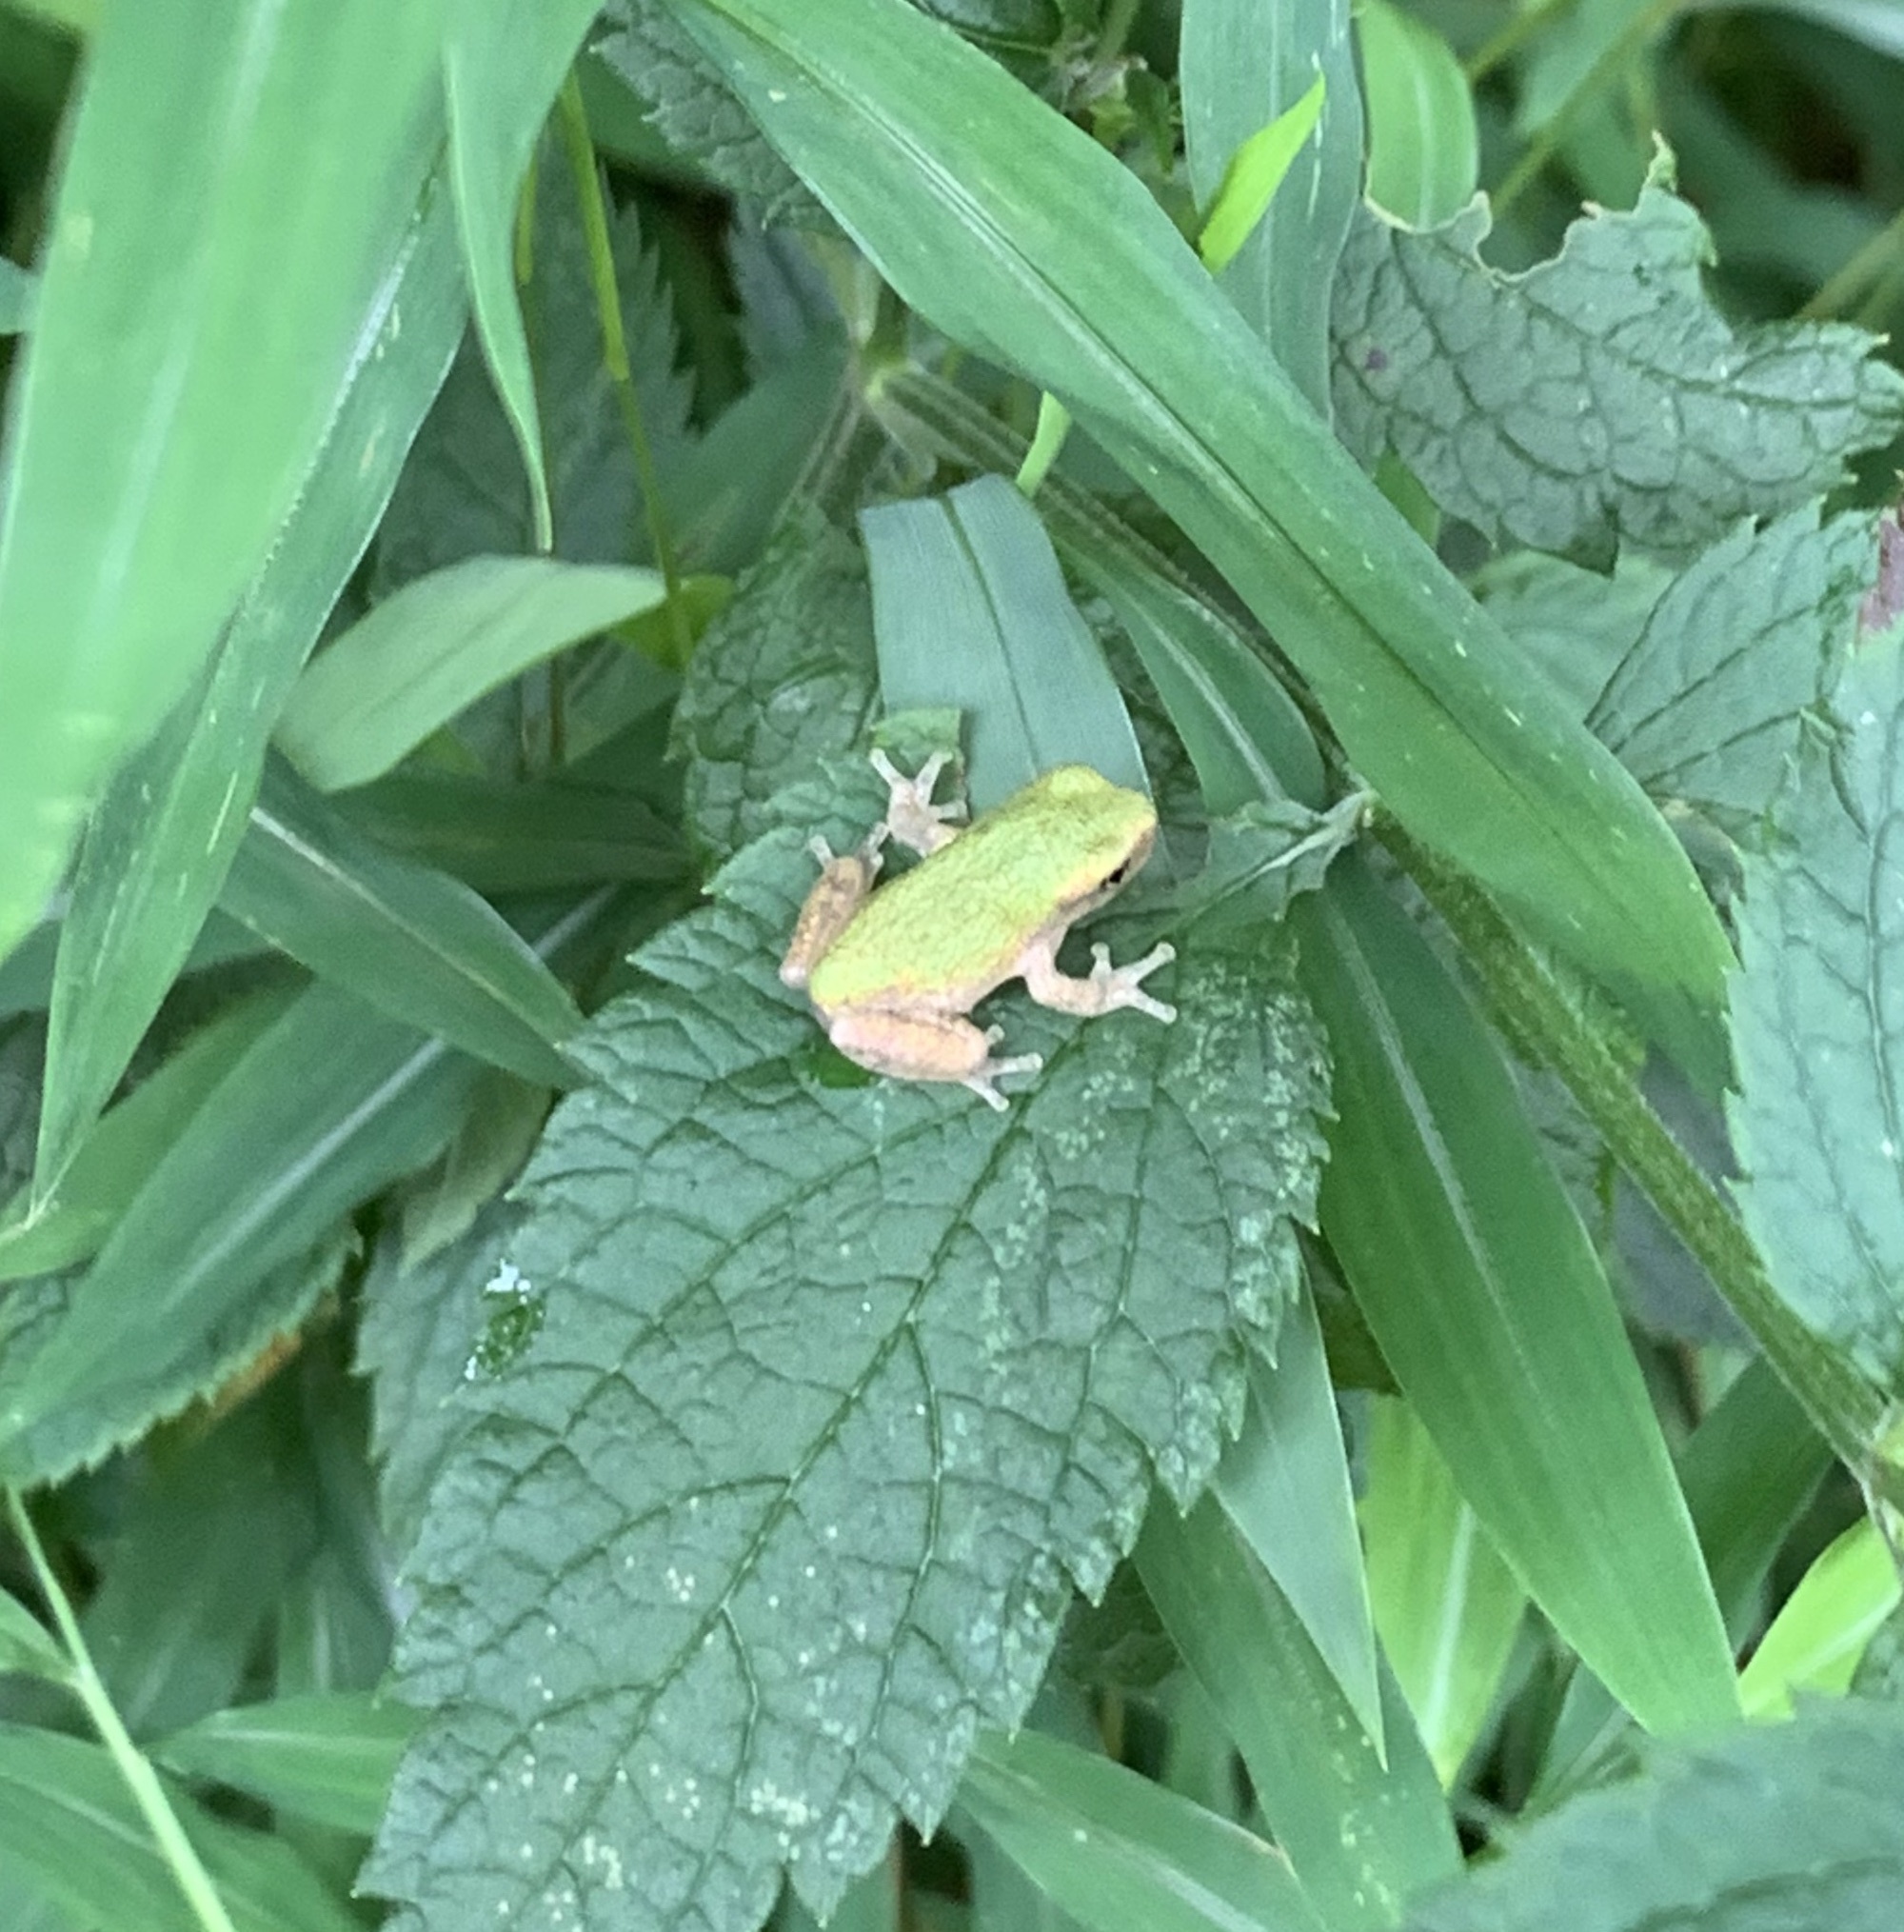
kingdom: Animalia
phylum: Chordata
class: Amphibia
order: Anura
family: Hylidae
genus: Hyla
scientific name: Hyla
